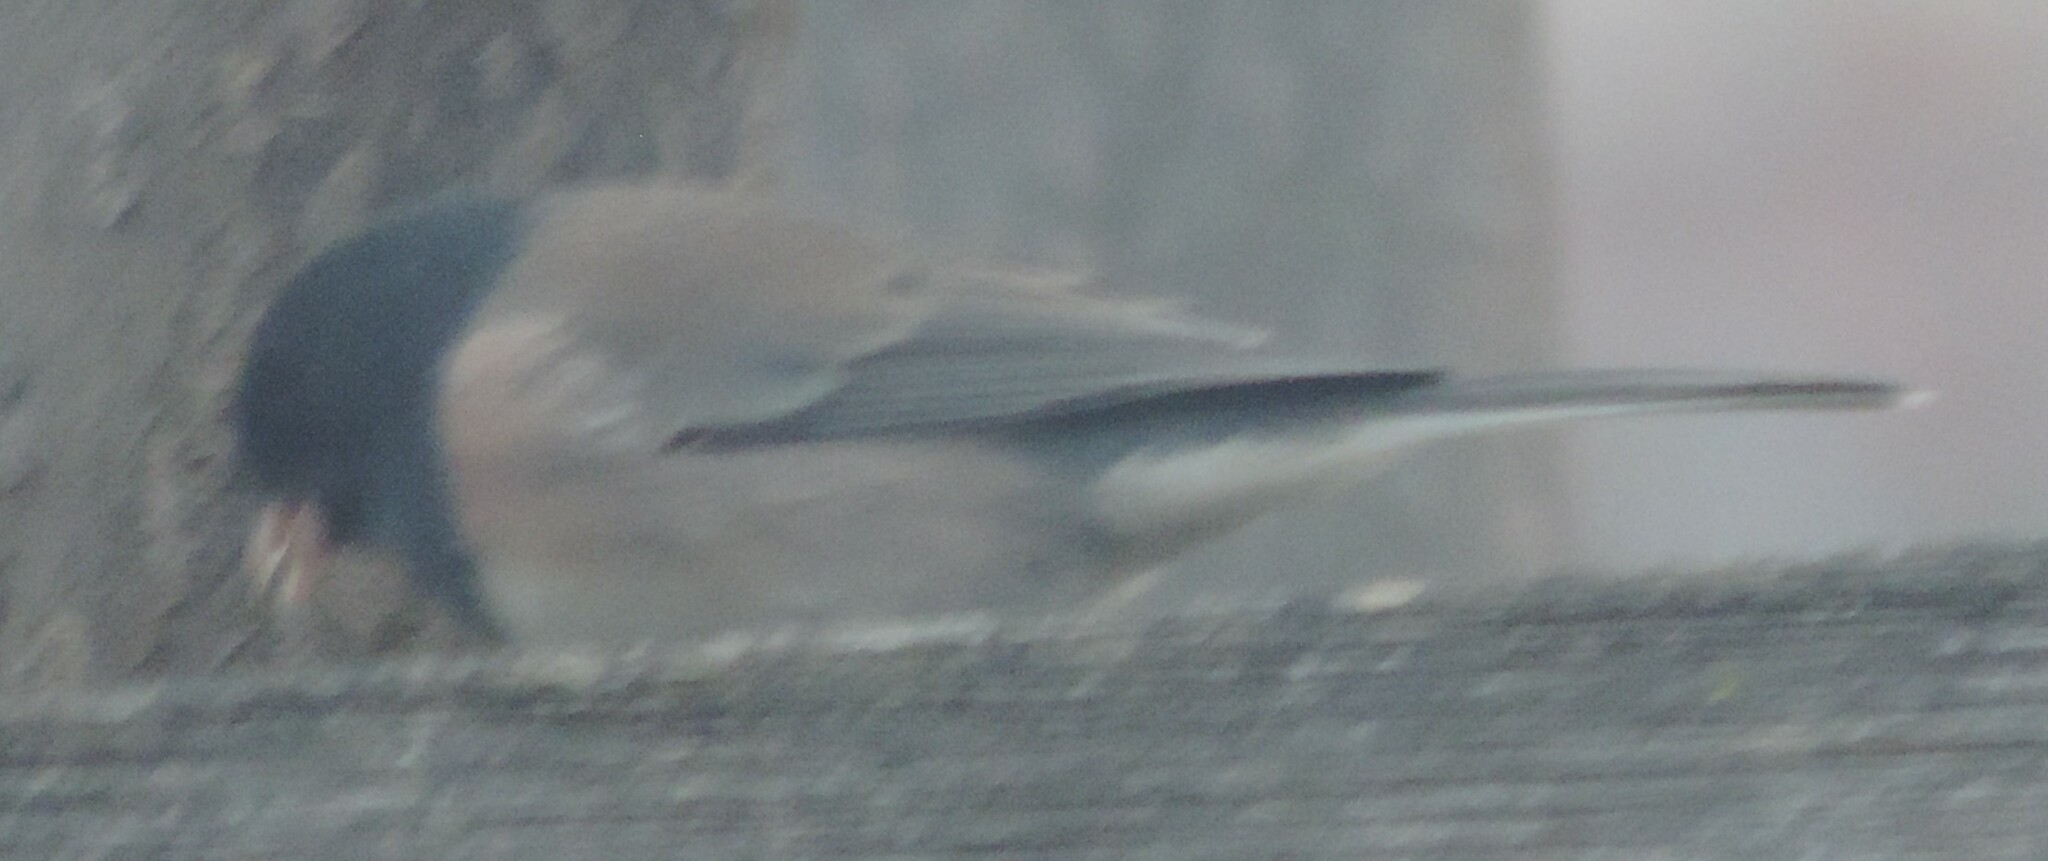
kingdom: Animalia
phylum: Chordata
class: Aves
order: Passeriformes
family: Passerellidae
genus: Junco
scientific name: Junco hyemalis
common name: Dark-eyed junco
